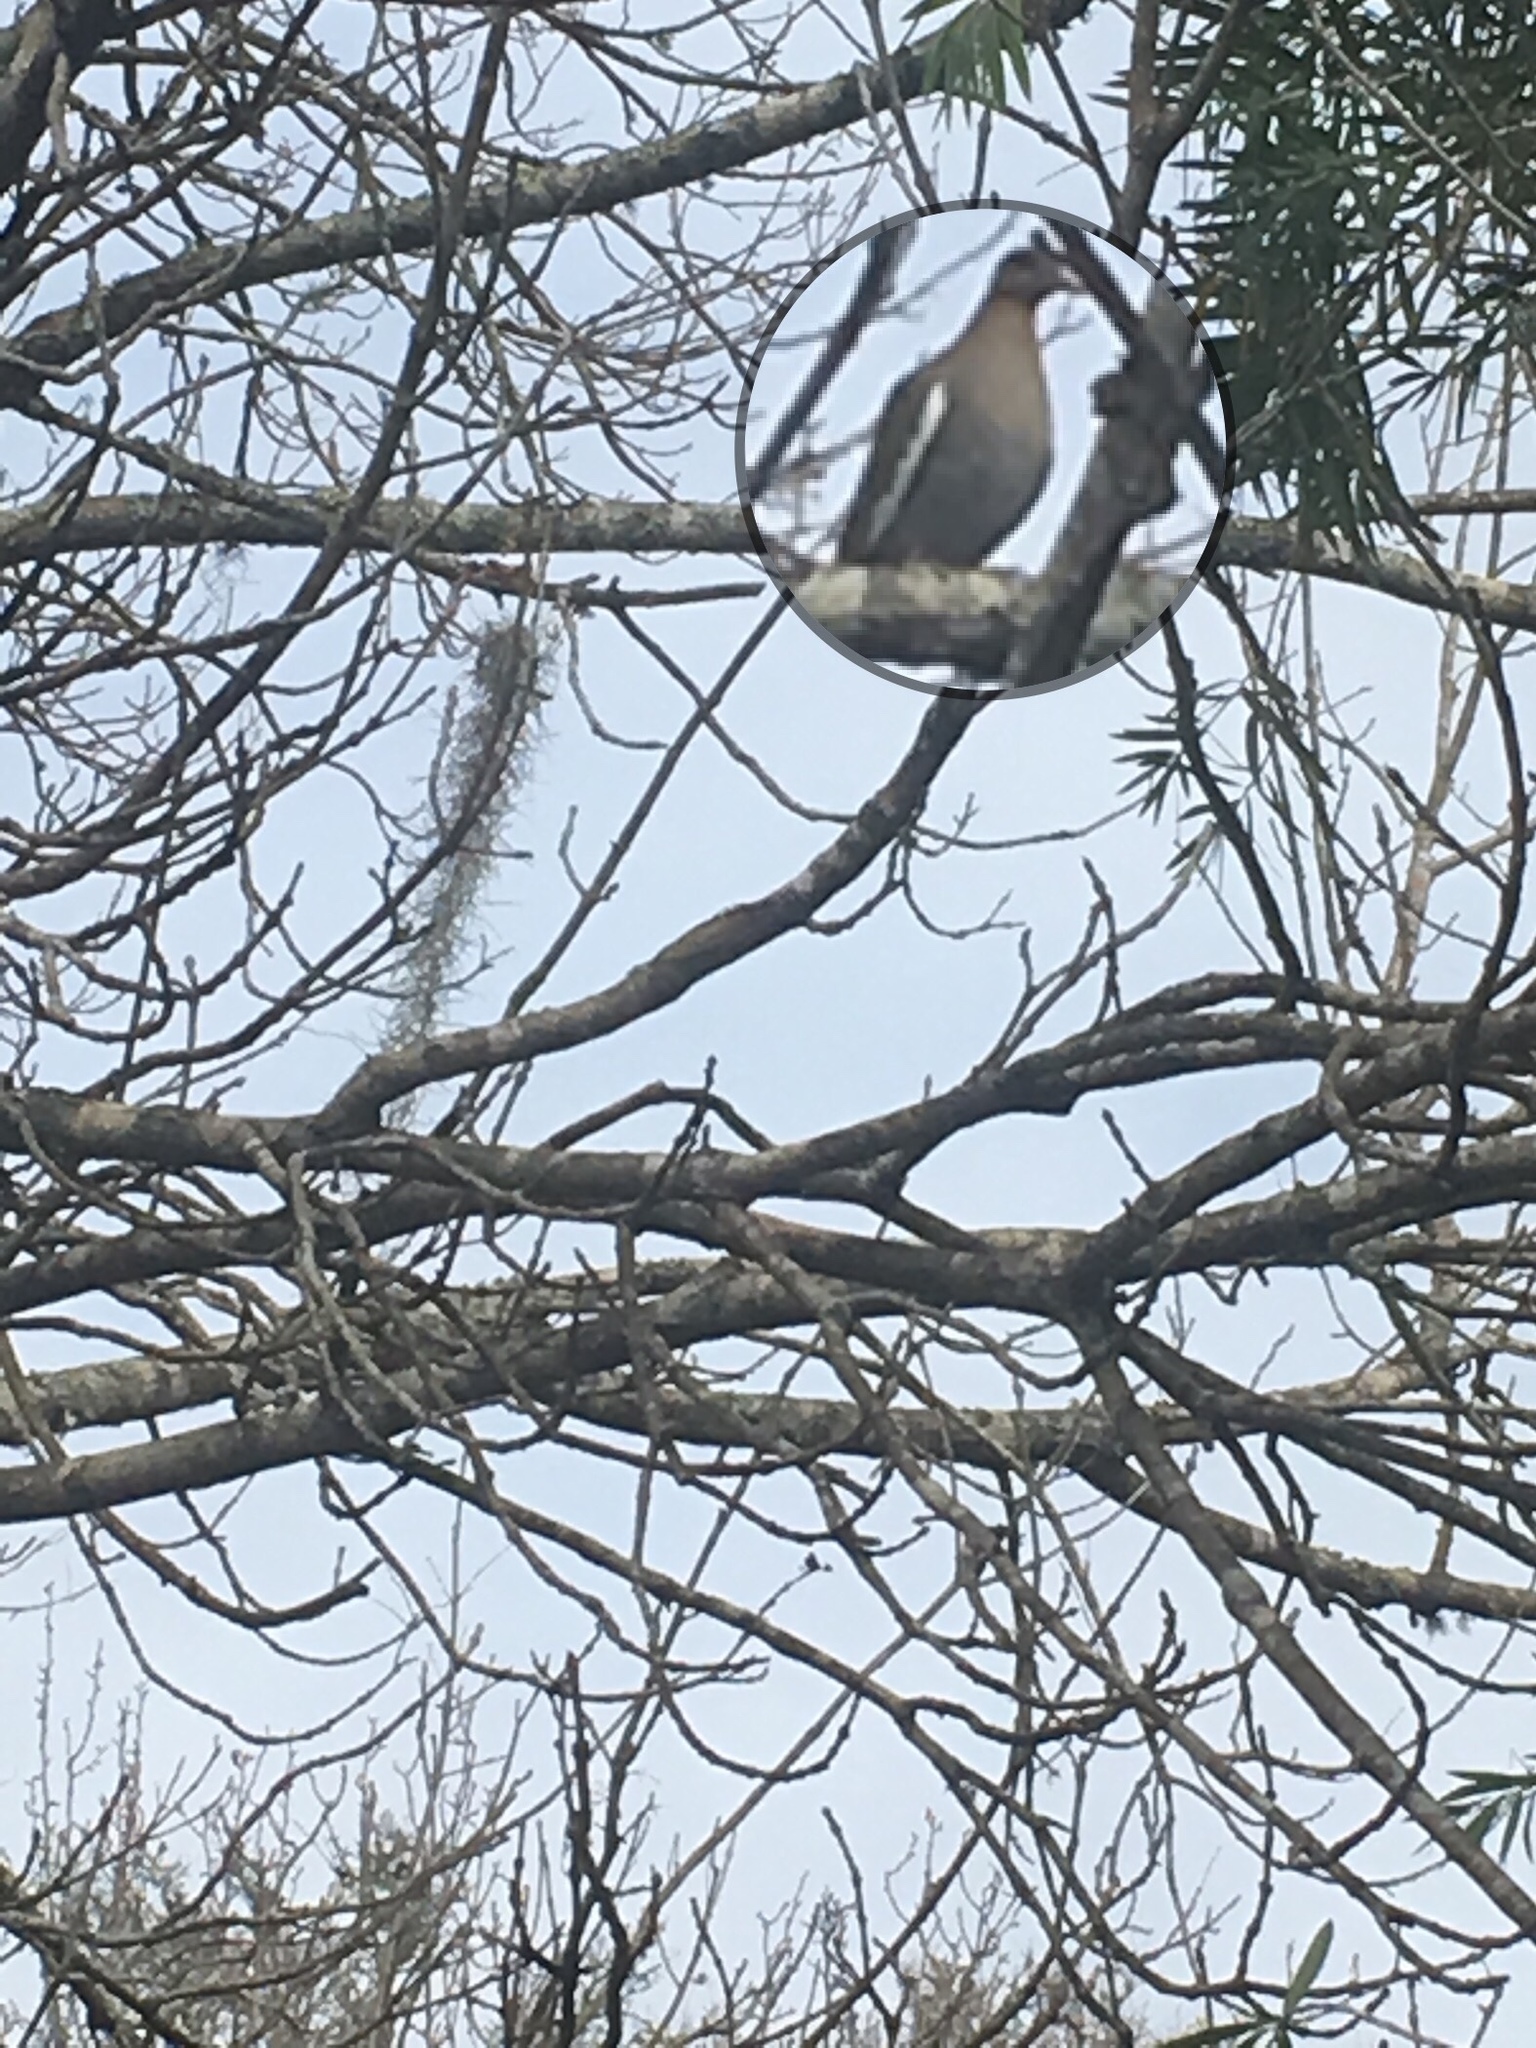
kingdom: Animalia
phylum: Chordata
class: Aves
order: Columbiformes
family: Columbidae
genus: Zenaida
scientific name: Zenaida asiatica
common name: White-winged dove
